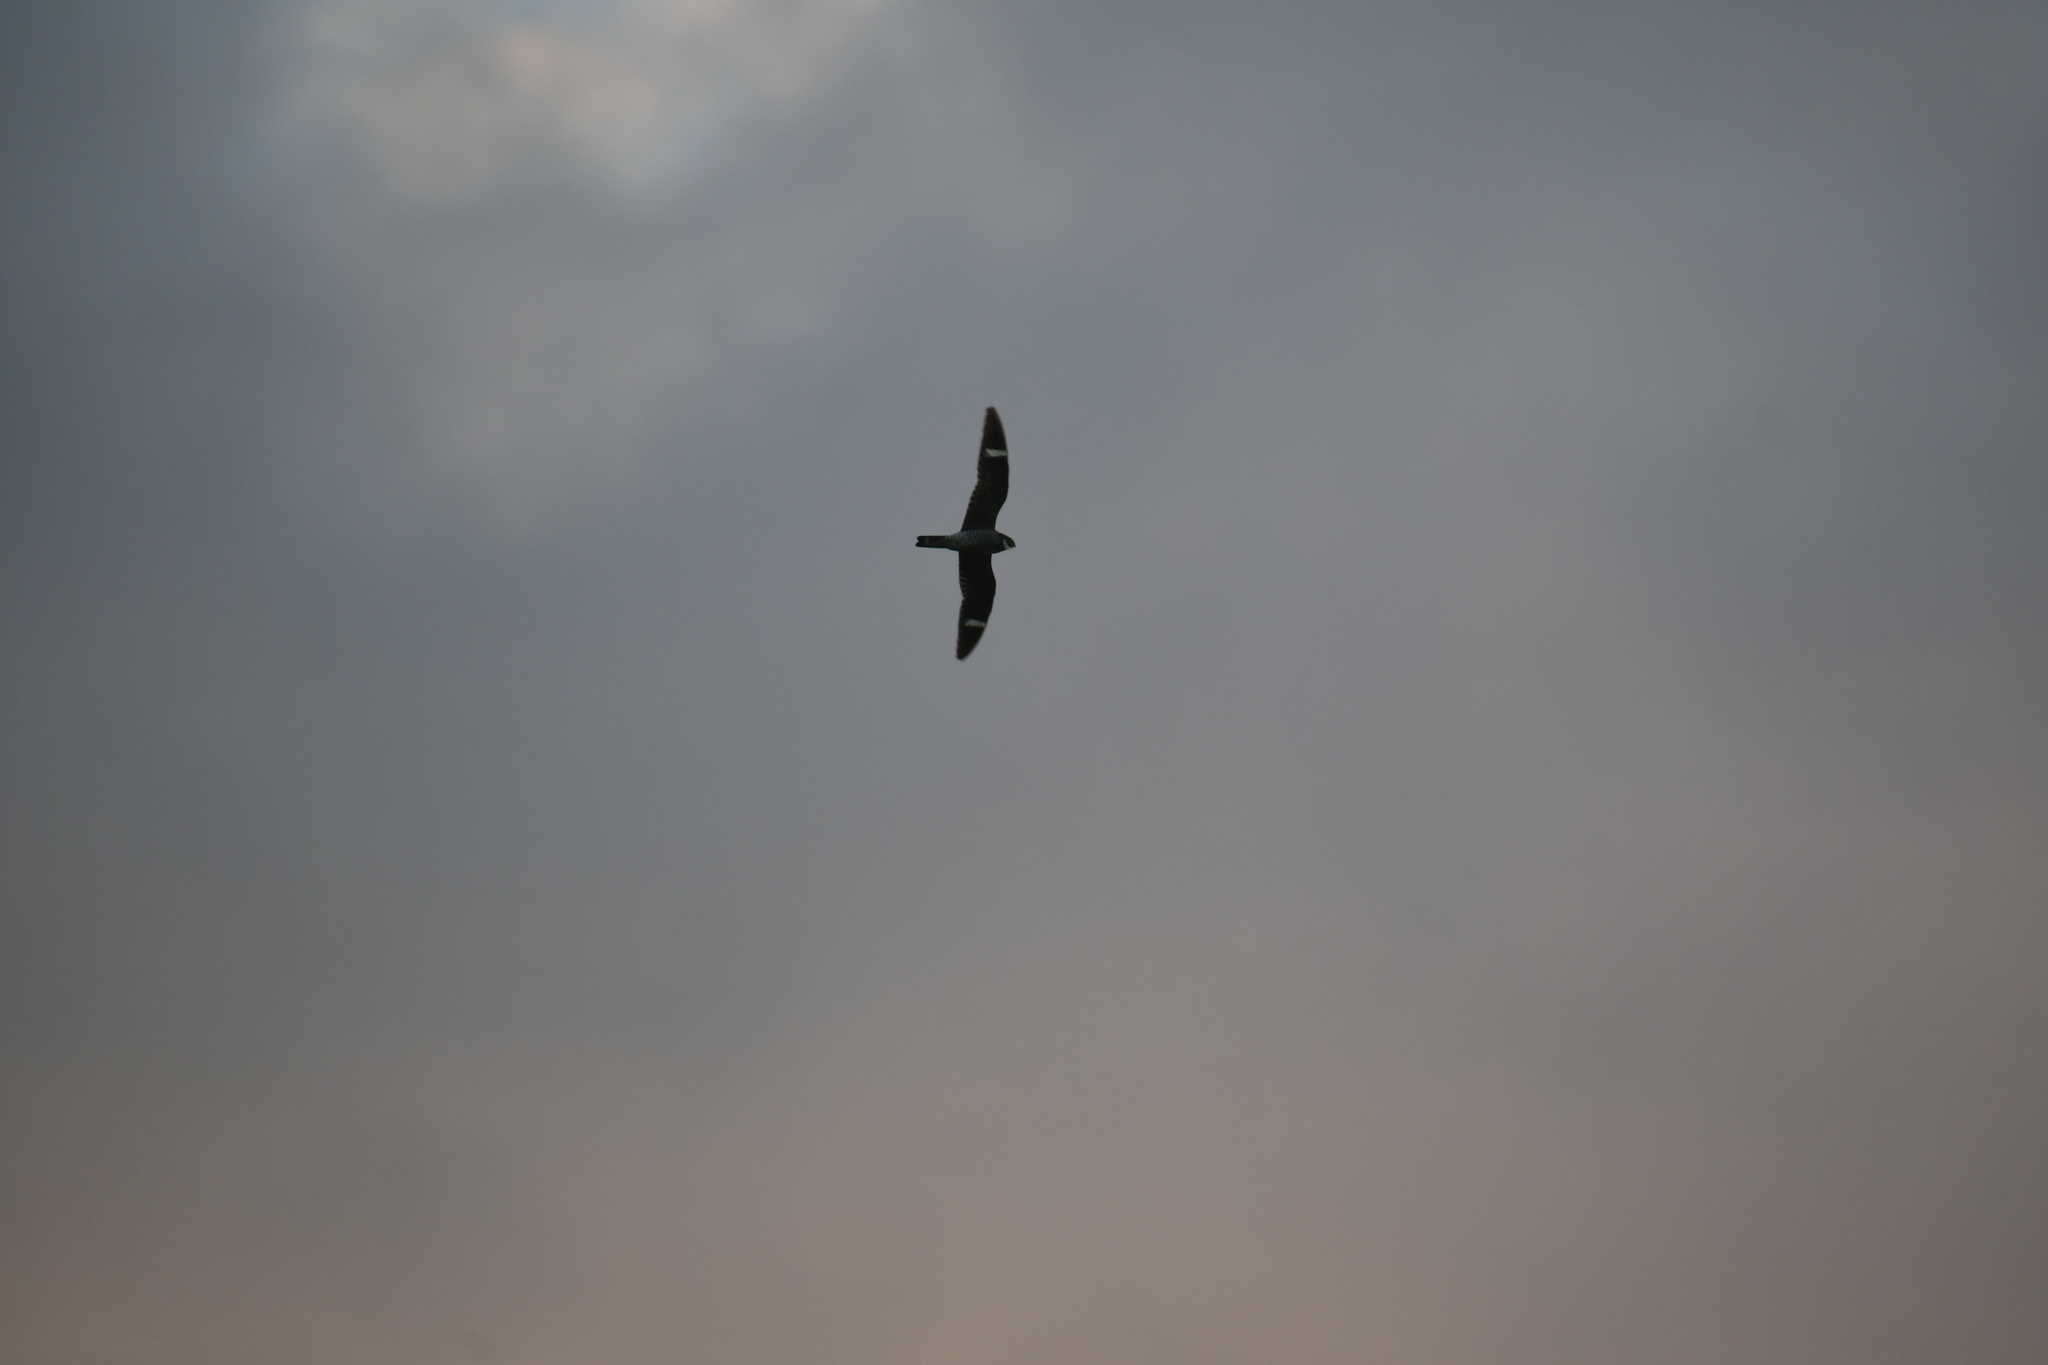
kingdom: Animalia
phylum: Chordata
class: Aves
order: Caprimulgiformes
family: Caprimulgidae
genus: Chordeiles
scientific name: Chordeiles minor
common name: Common nighthawk
